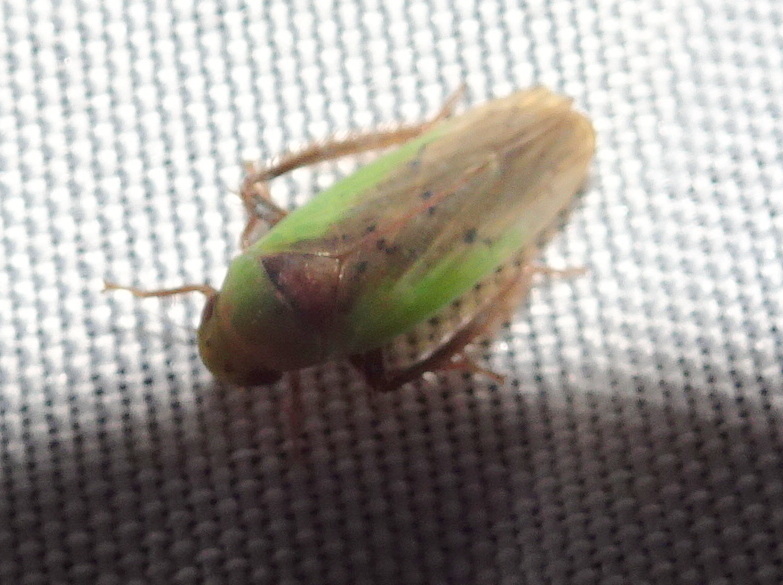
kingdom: Animalia
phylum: Arthropoda
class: Insecta
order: Hemiptera
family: Cicadellidae
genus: Ponana
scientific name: Ponana pectoralis
